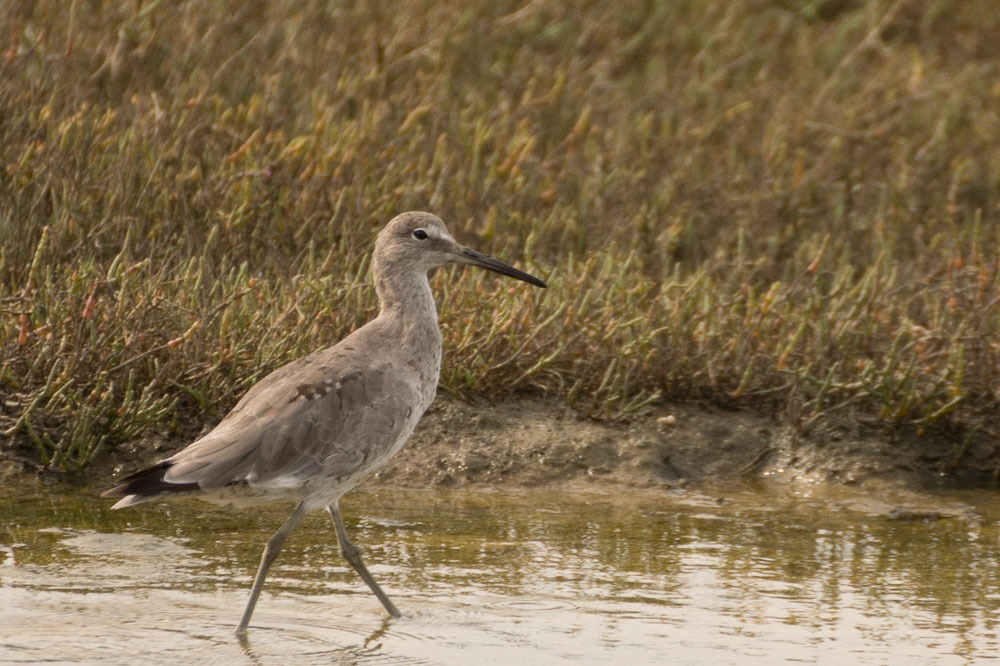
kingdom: Animalia
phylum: Chordata
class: Aves
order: Charadriiformes
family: Scolopacidae
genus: Tringa
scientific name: Tringa semipalmata
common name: Willet
